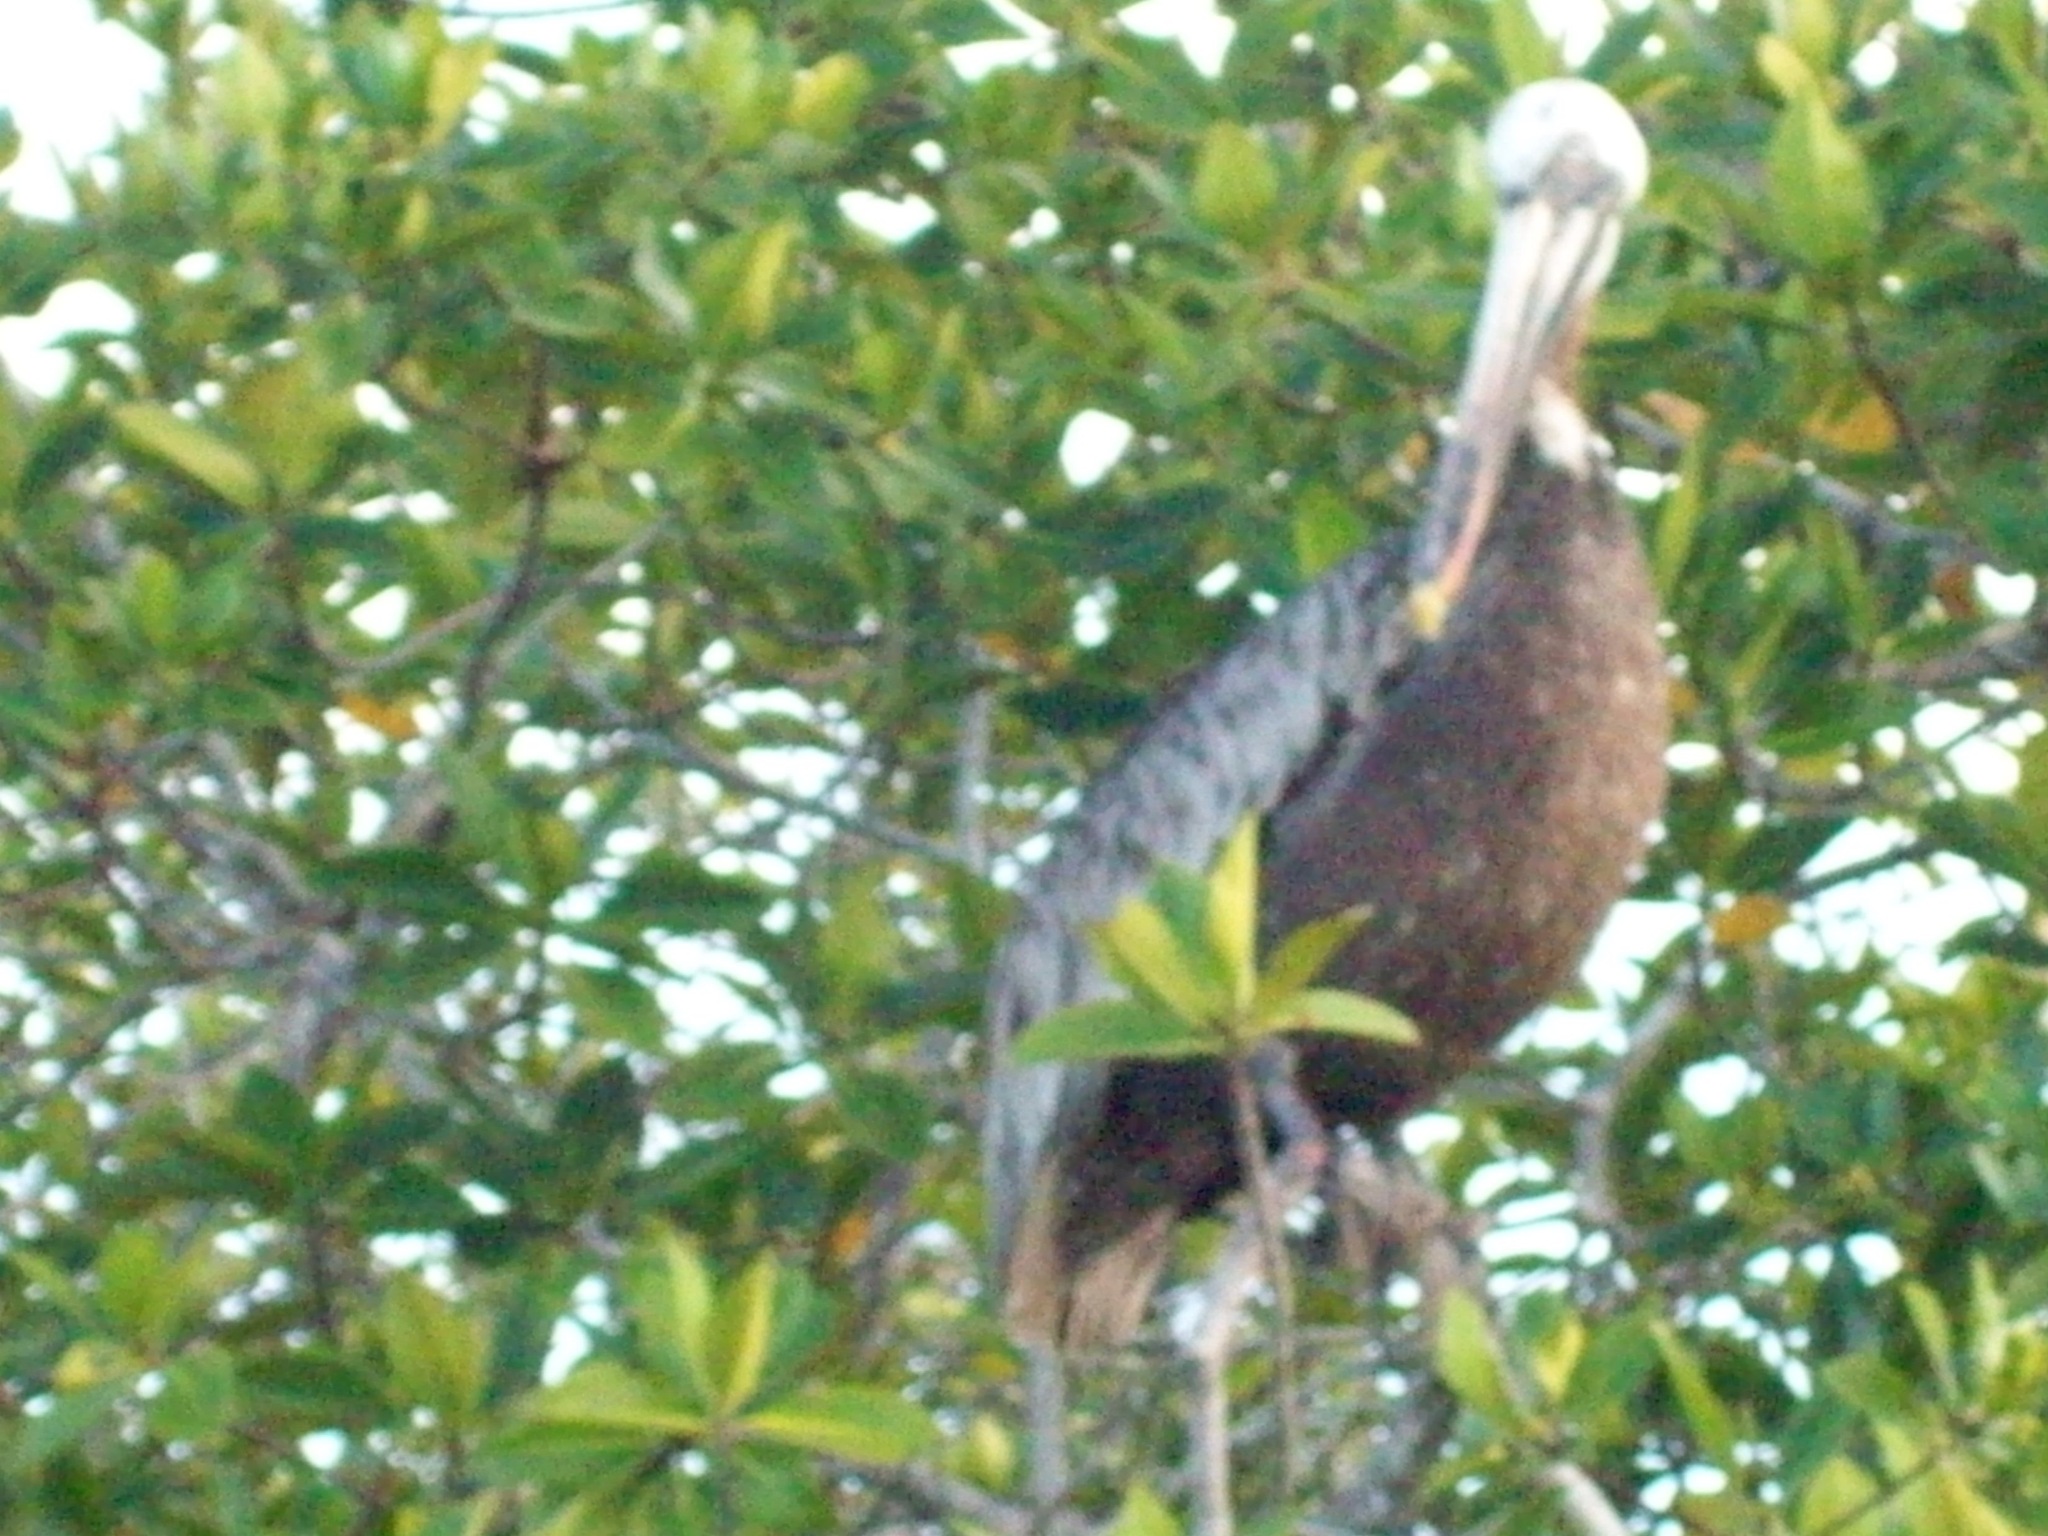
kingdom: Animalia
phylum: Chordata
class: Aves
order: Pelecaniformes
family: Pelecanidae
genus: Pelecanus
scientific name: Pelecanus occidentalis
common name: Brown pelican
